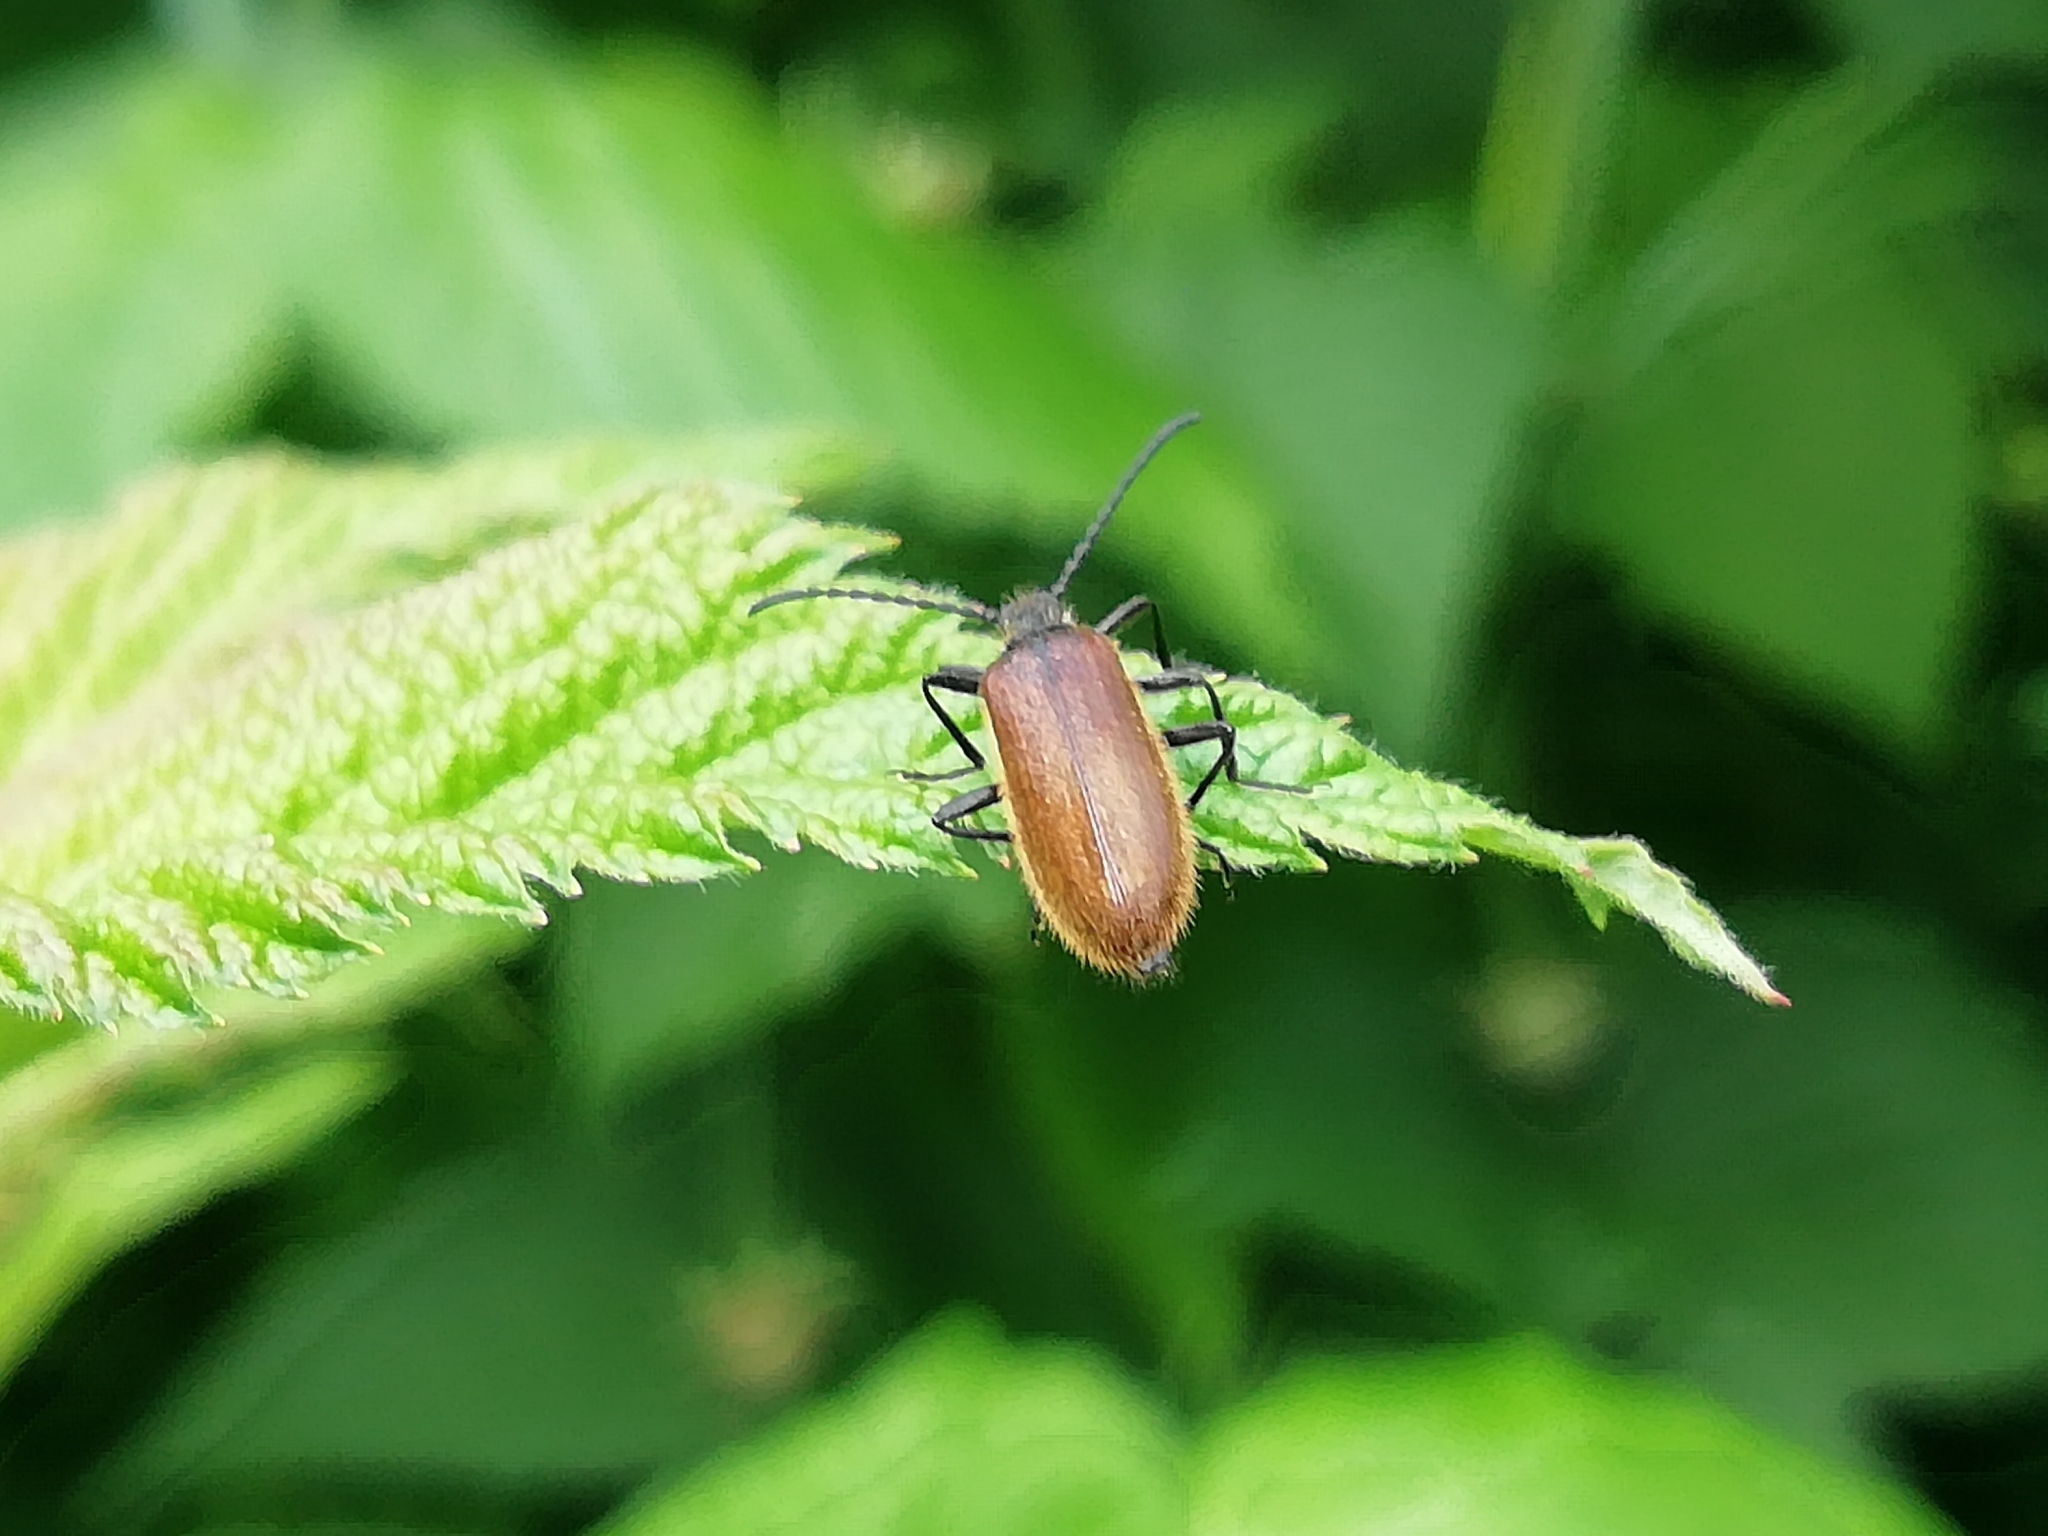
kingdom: Animalia
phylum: Arthropoda
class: Insecta
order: Coleoptera
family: Tenebrionidae
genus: Lagria
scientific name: Lagria hirta
